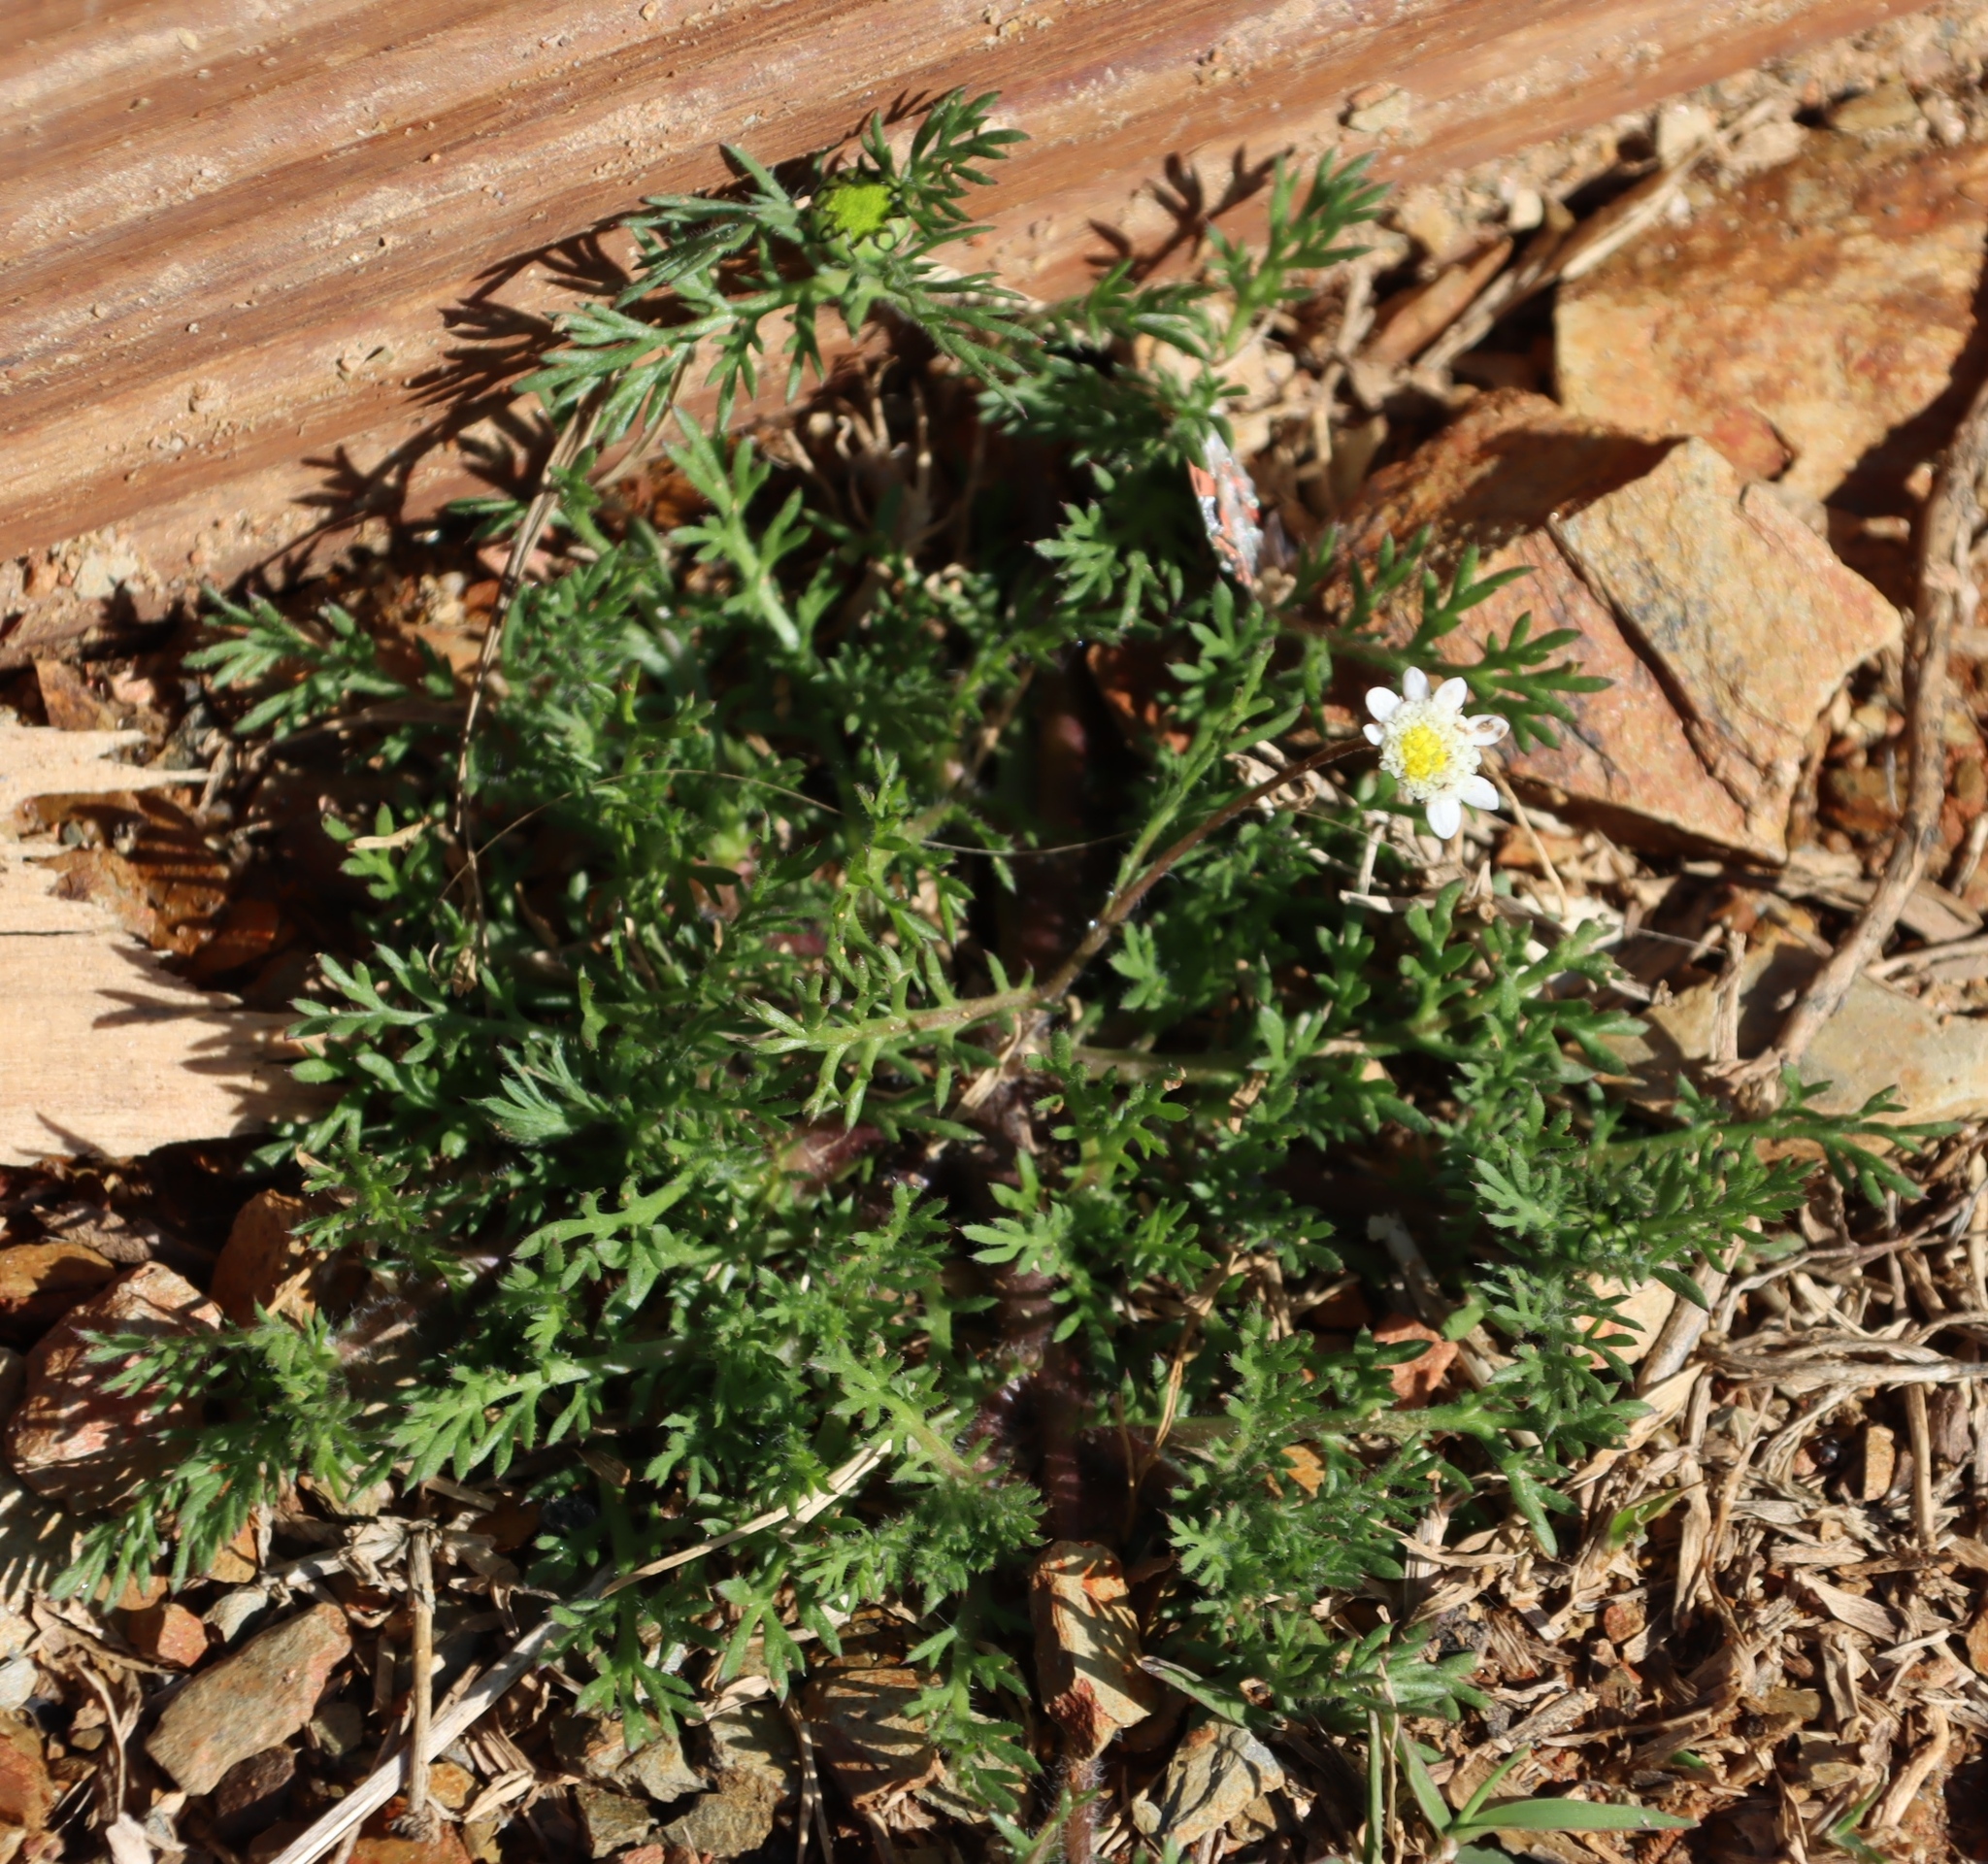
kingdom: Plantae
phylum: Tracheophyta
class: Magnoliopsida
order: Asterales
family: Asteraceae
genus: Cotula
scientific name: Cotula turbinata
